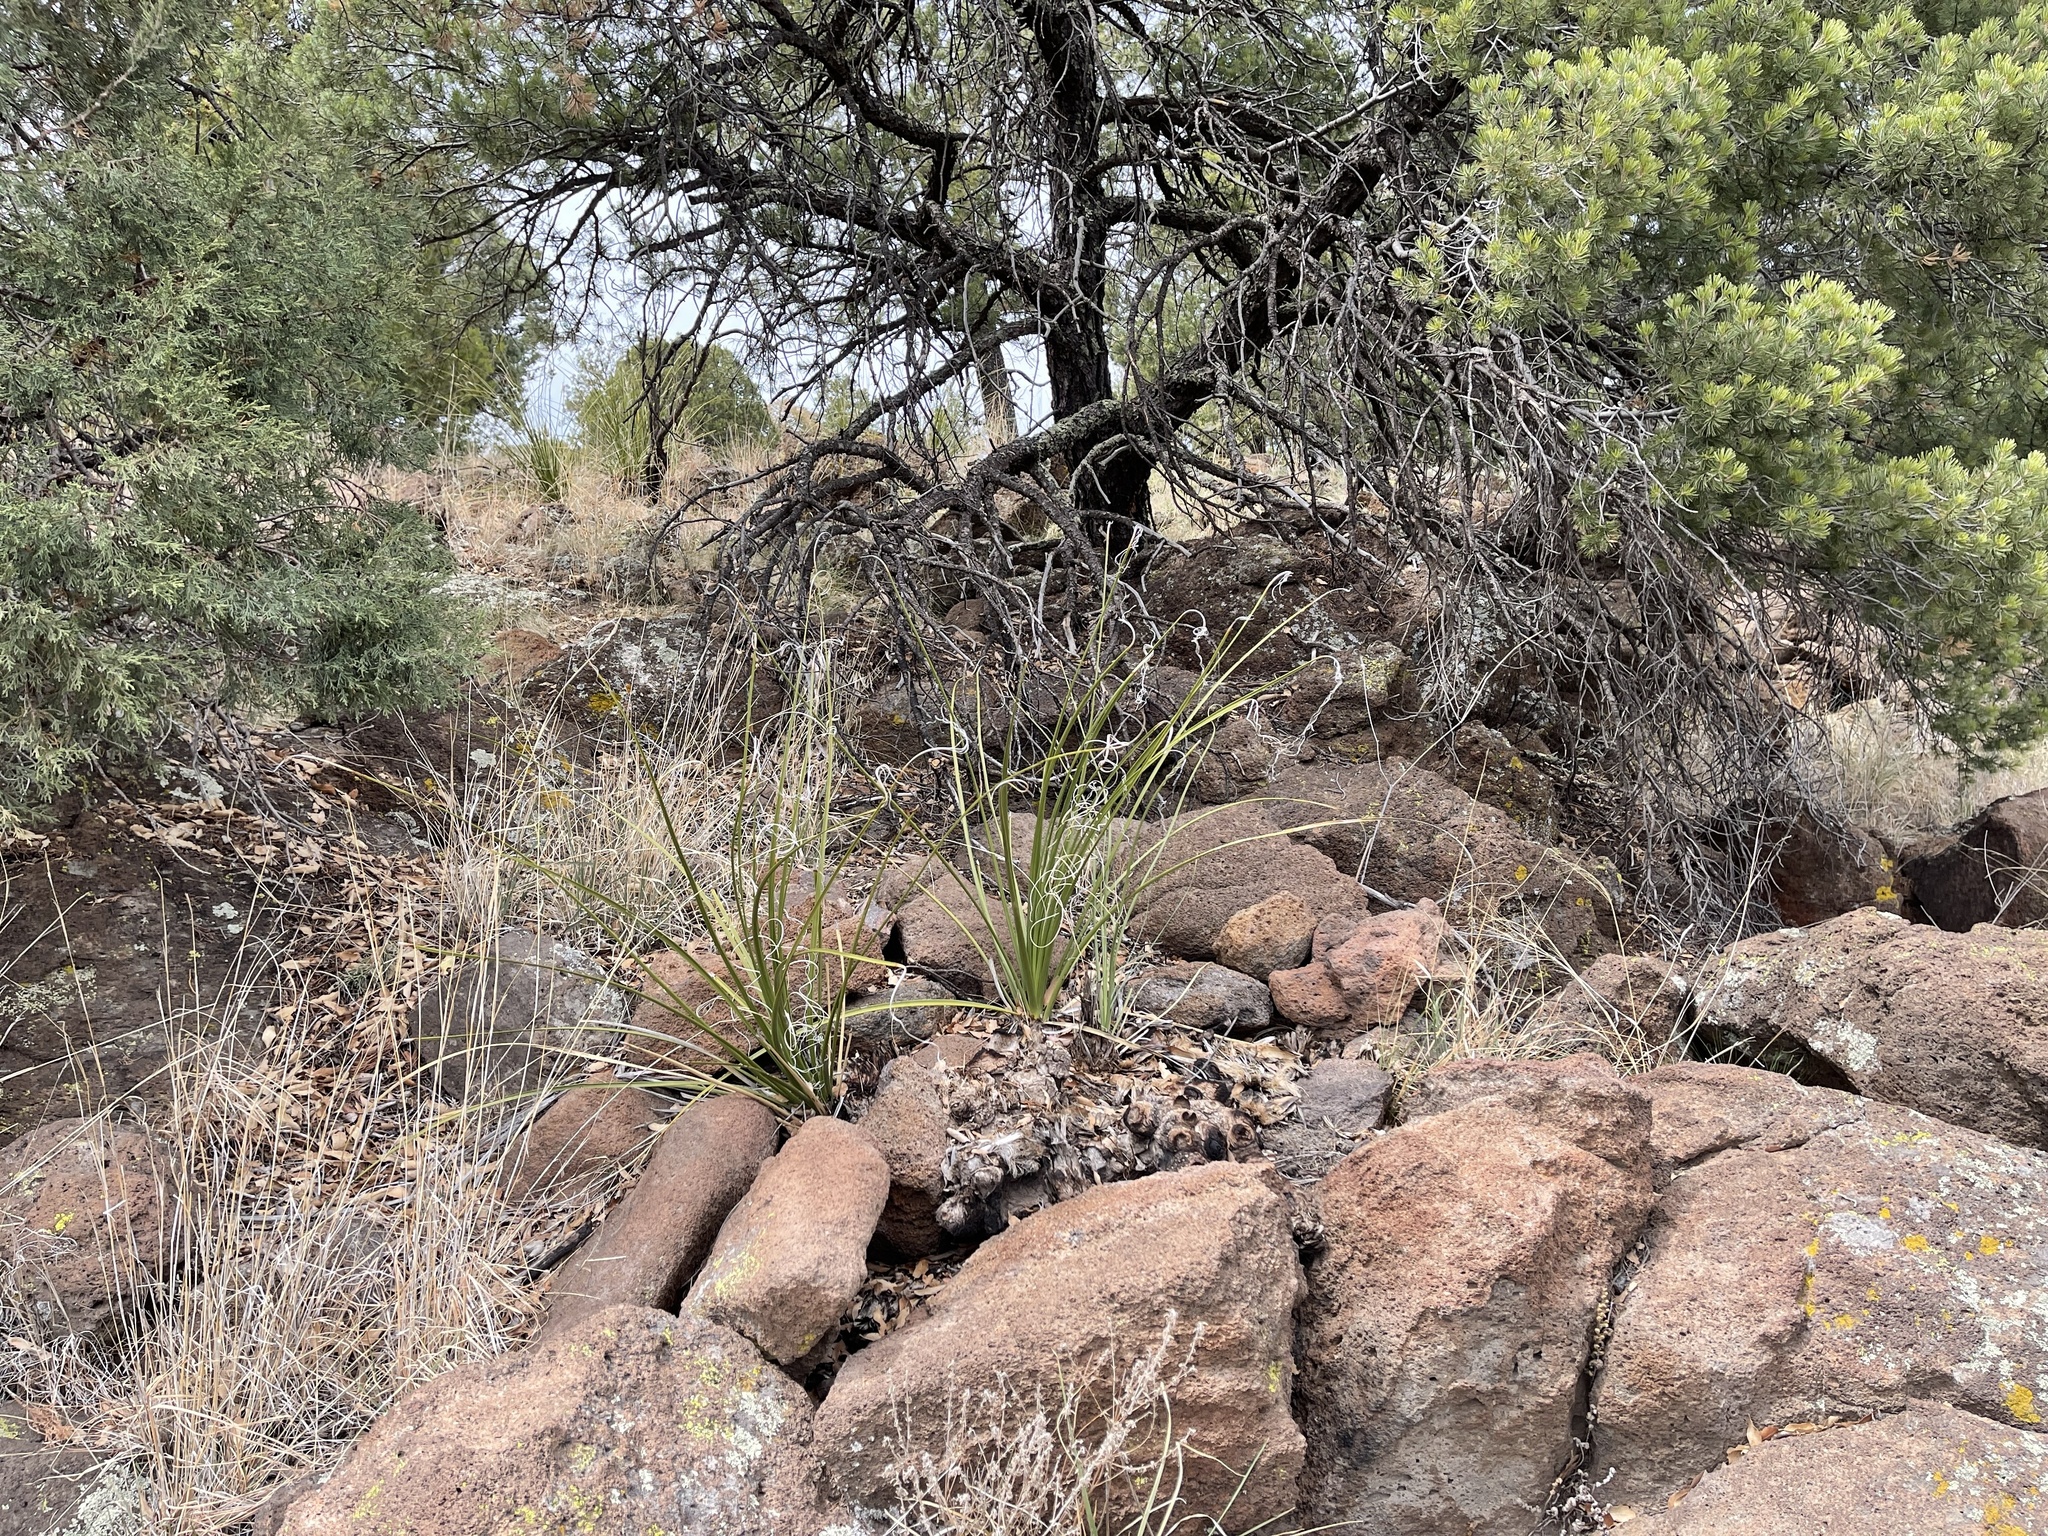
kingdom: Plantae
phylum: Tracheophyta
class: Liliopsida
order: Asparagales
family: Asparagaceae
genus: Nolina
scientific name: Nolina microcarpa
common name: Bear-grass
